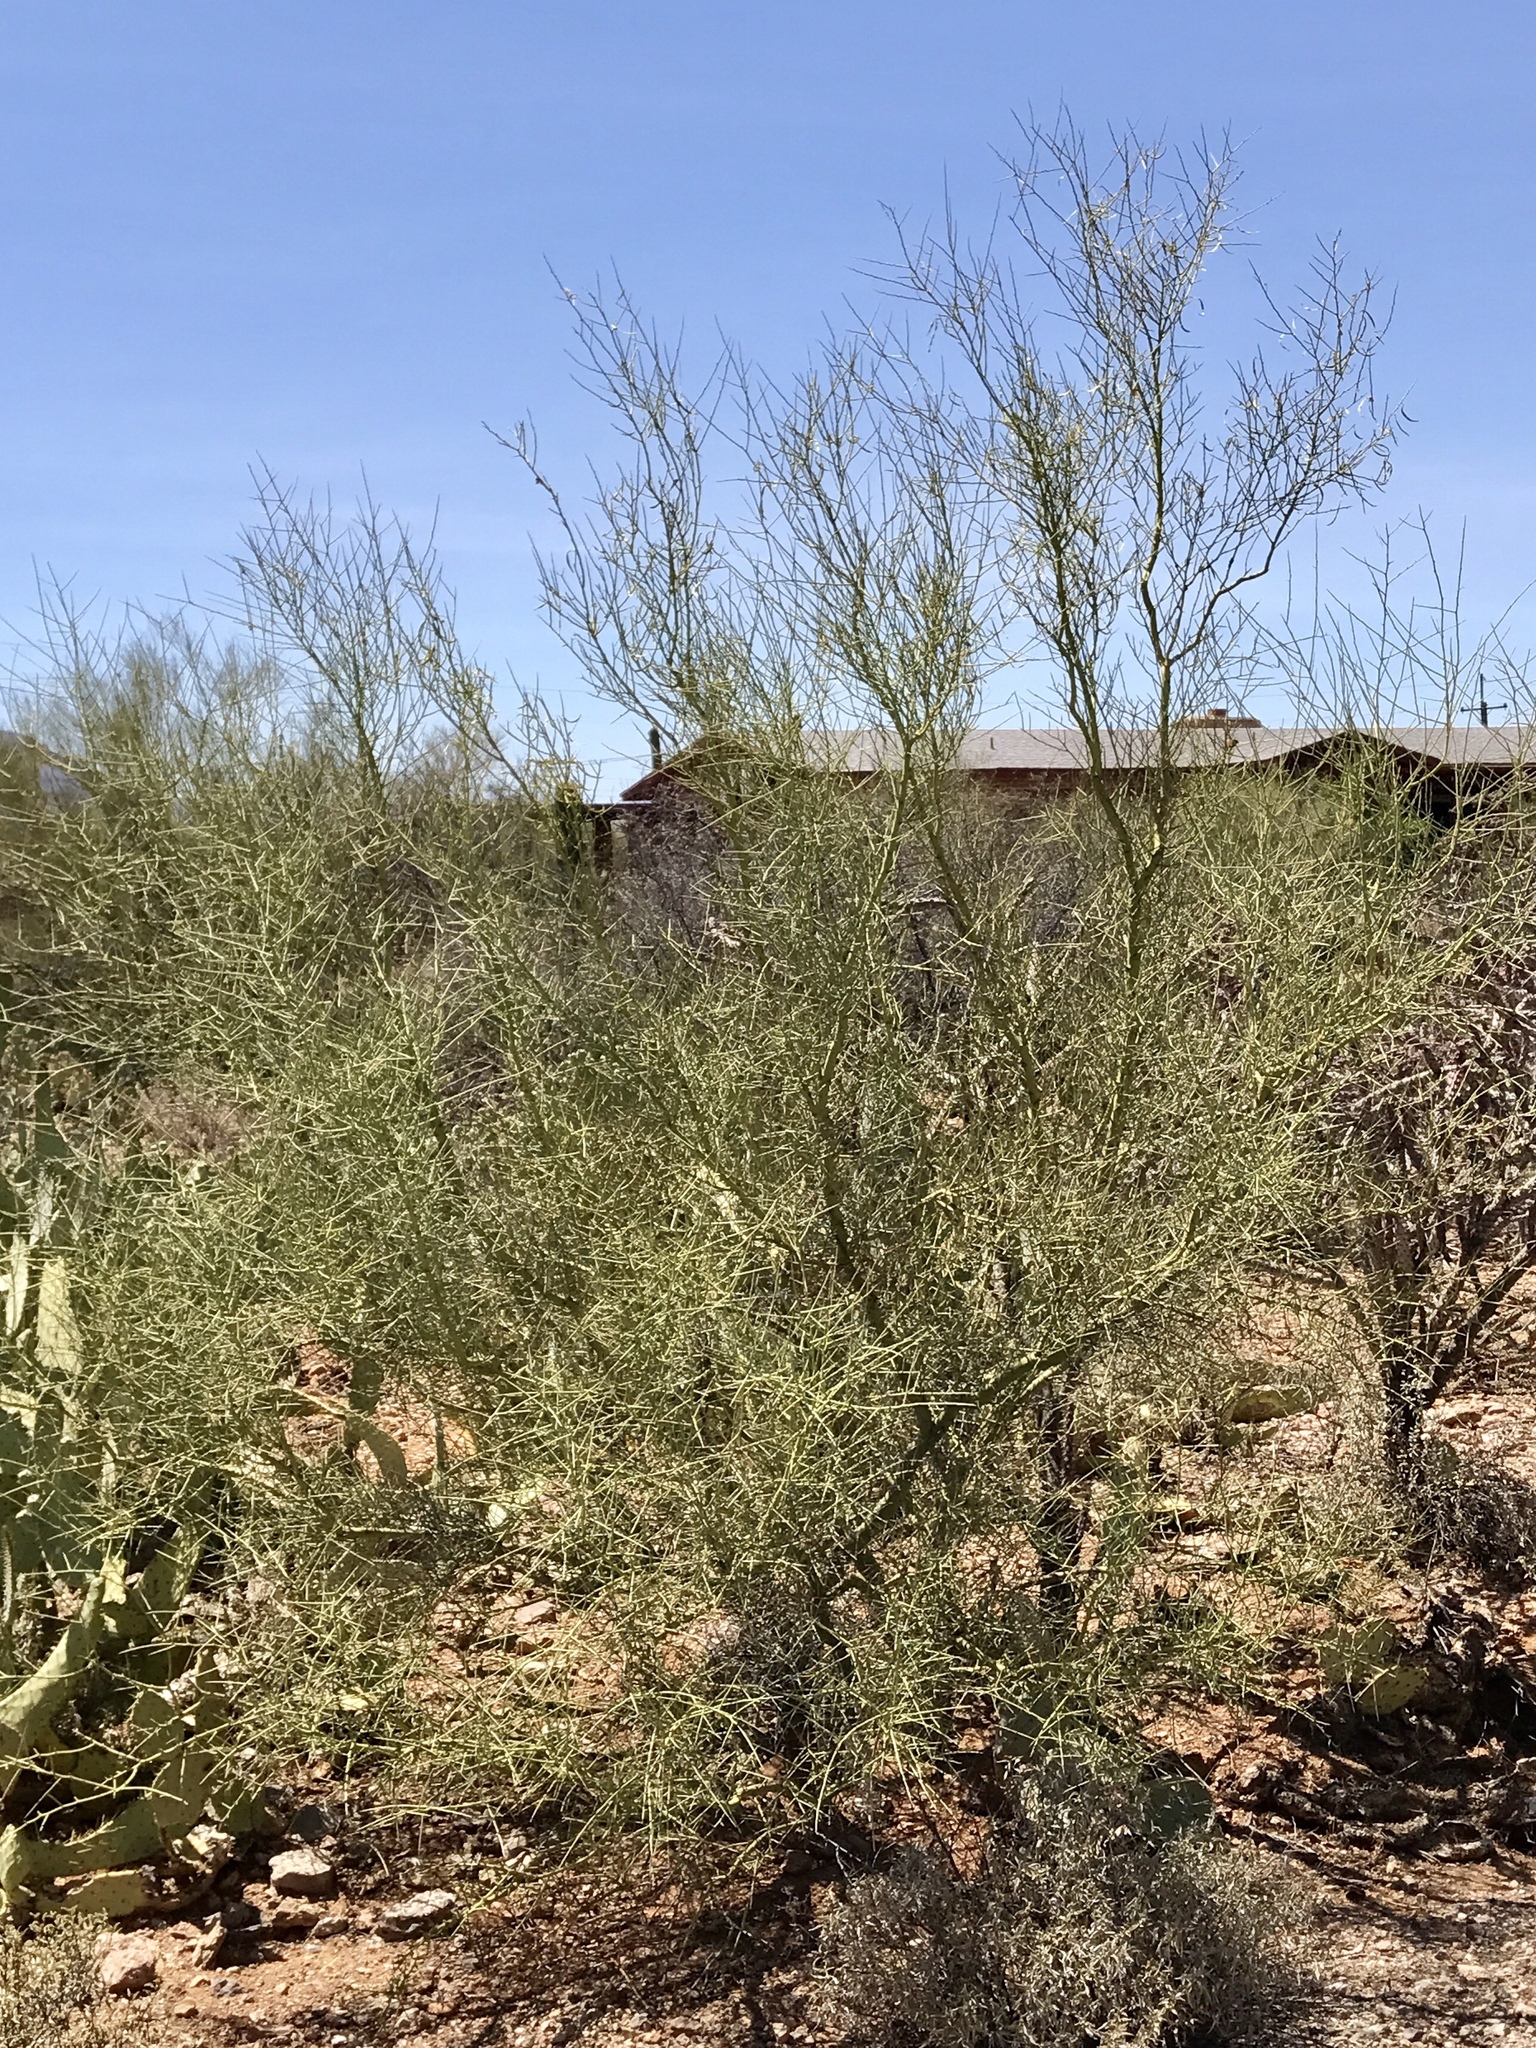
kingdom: Plantae
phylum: Tracheophyta
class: Magnoliopsida
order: Fabales
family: Fabaceae
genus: Parkinsonia
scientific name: Parkinsonia microphylla
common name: Yellow paloverde
